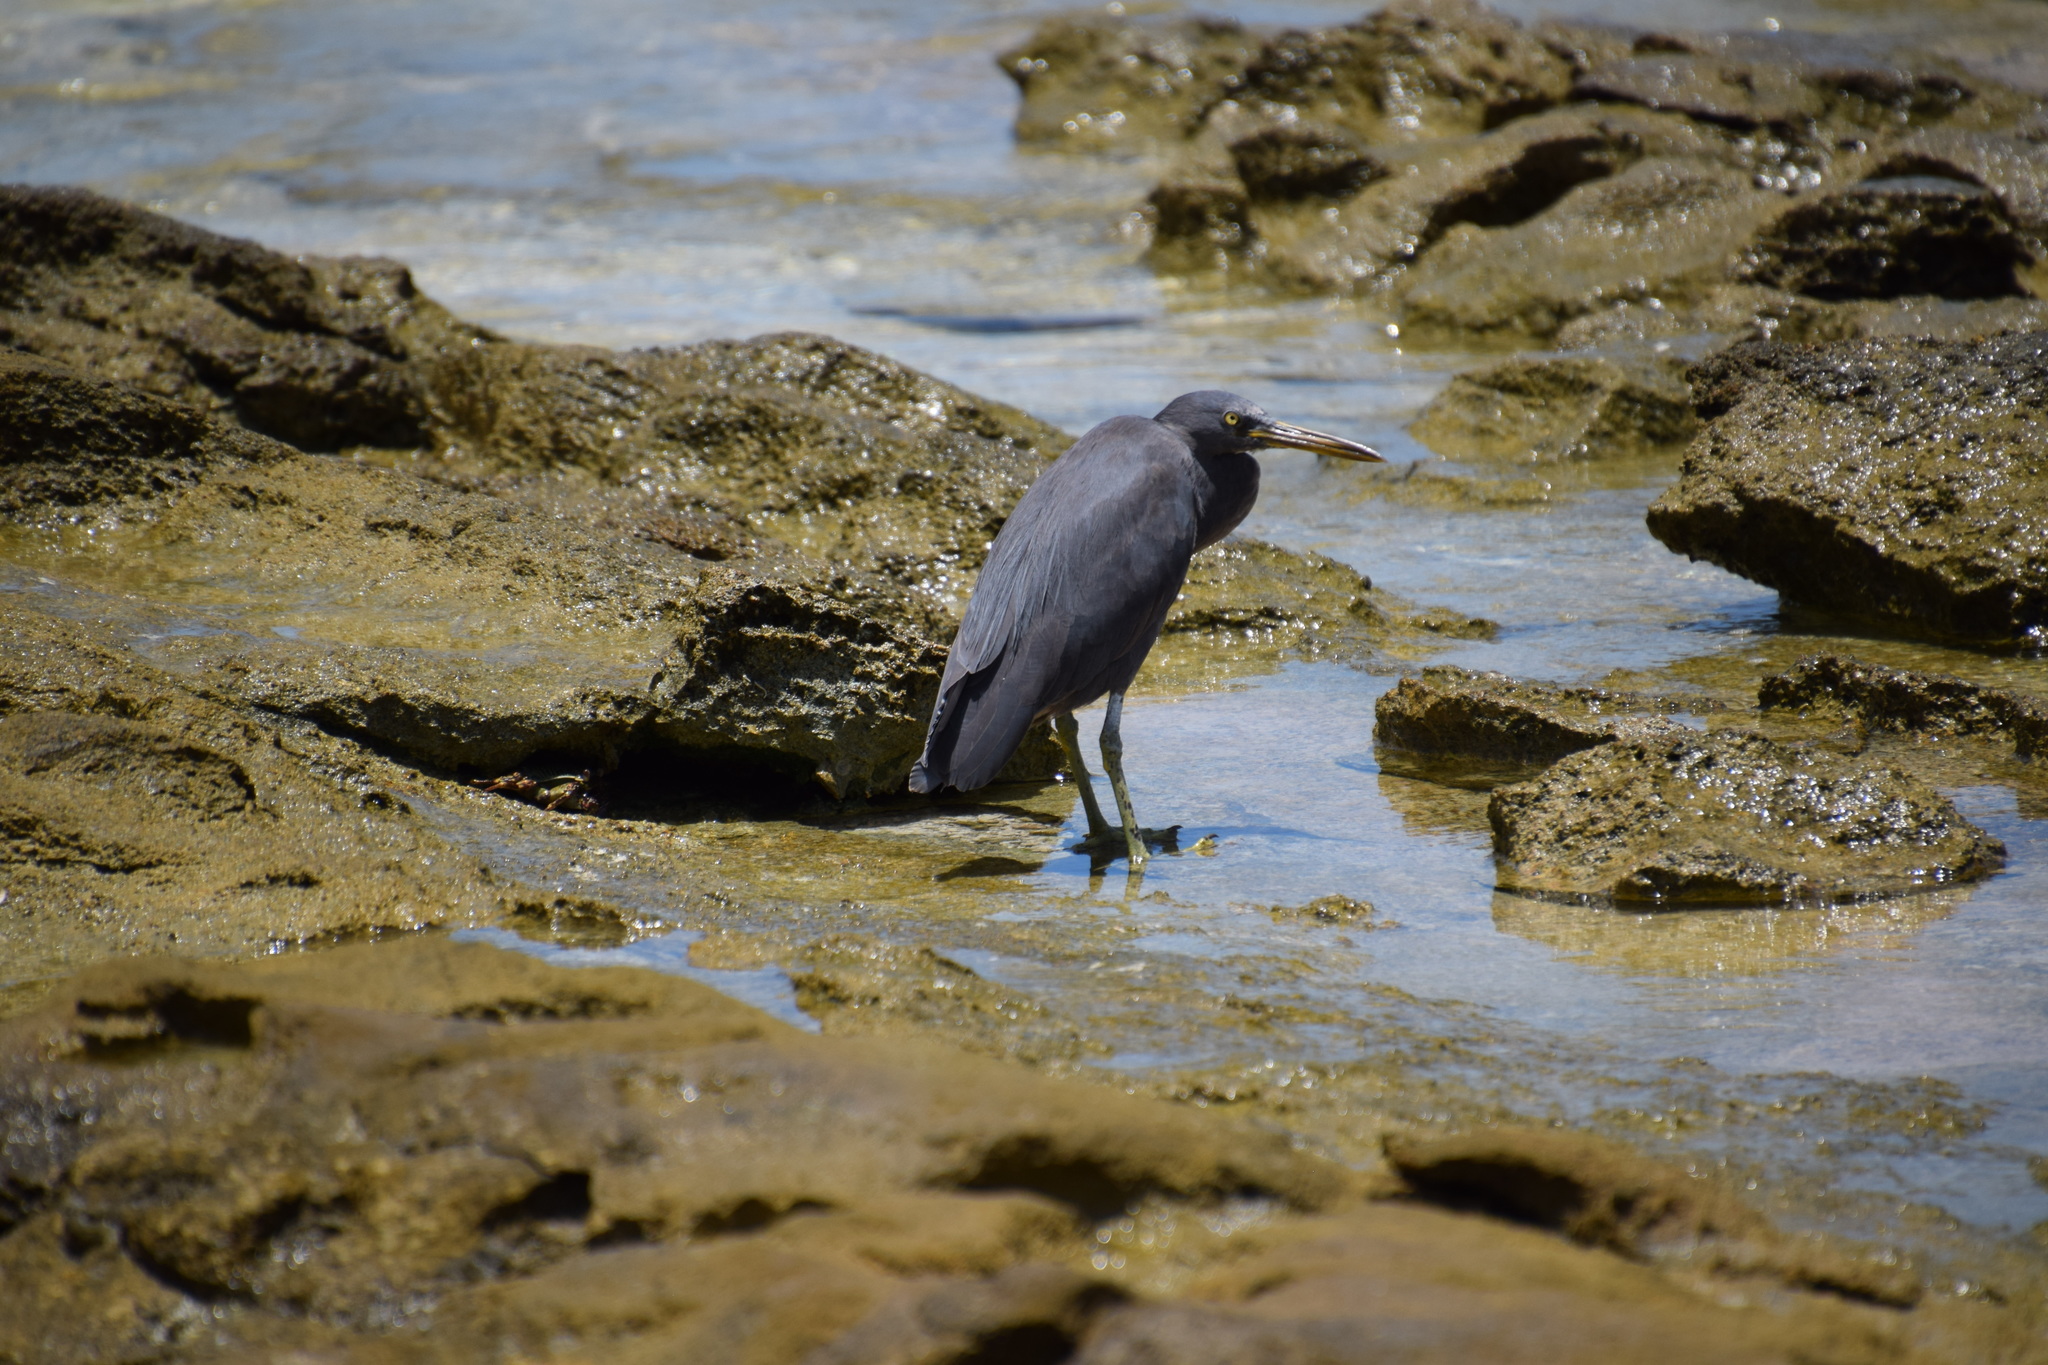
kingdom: Animalia
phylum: Chordata
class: Aves
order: Pelecaniformes
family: Ardeidae
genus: Egretta
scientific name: Egretta sacra
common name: Pacific reef heron
